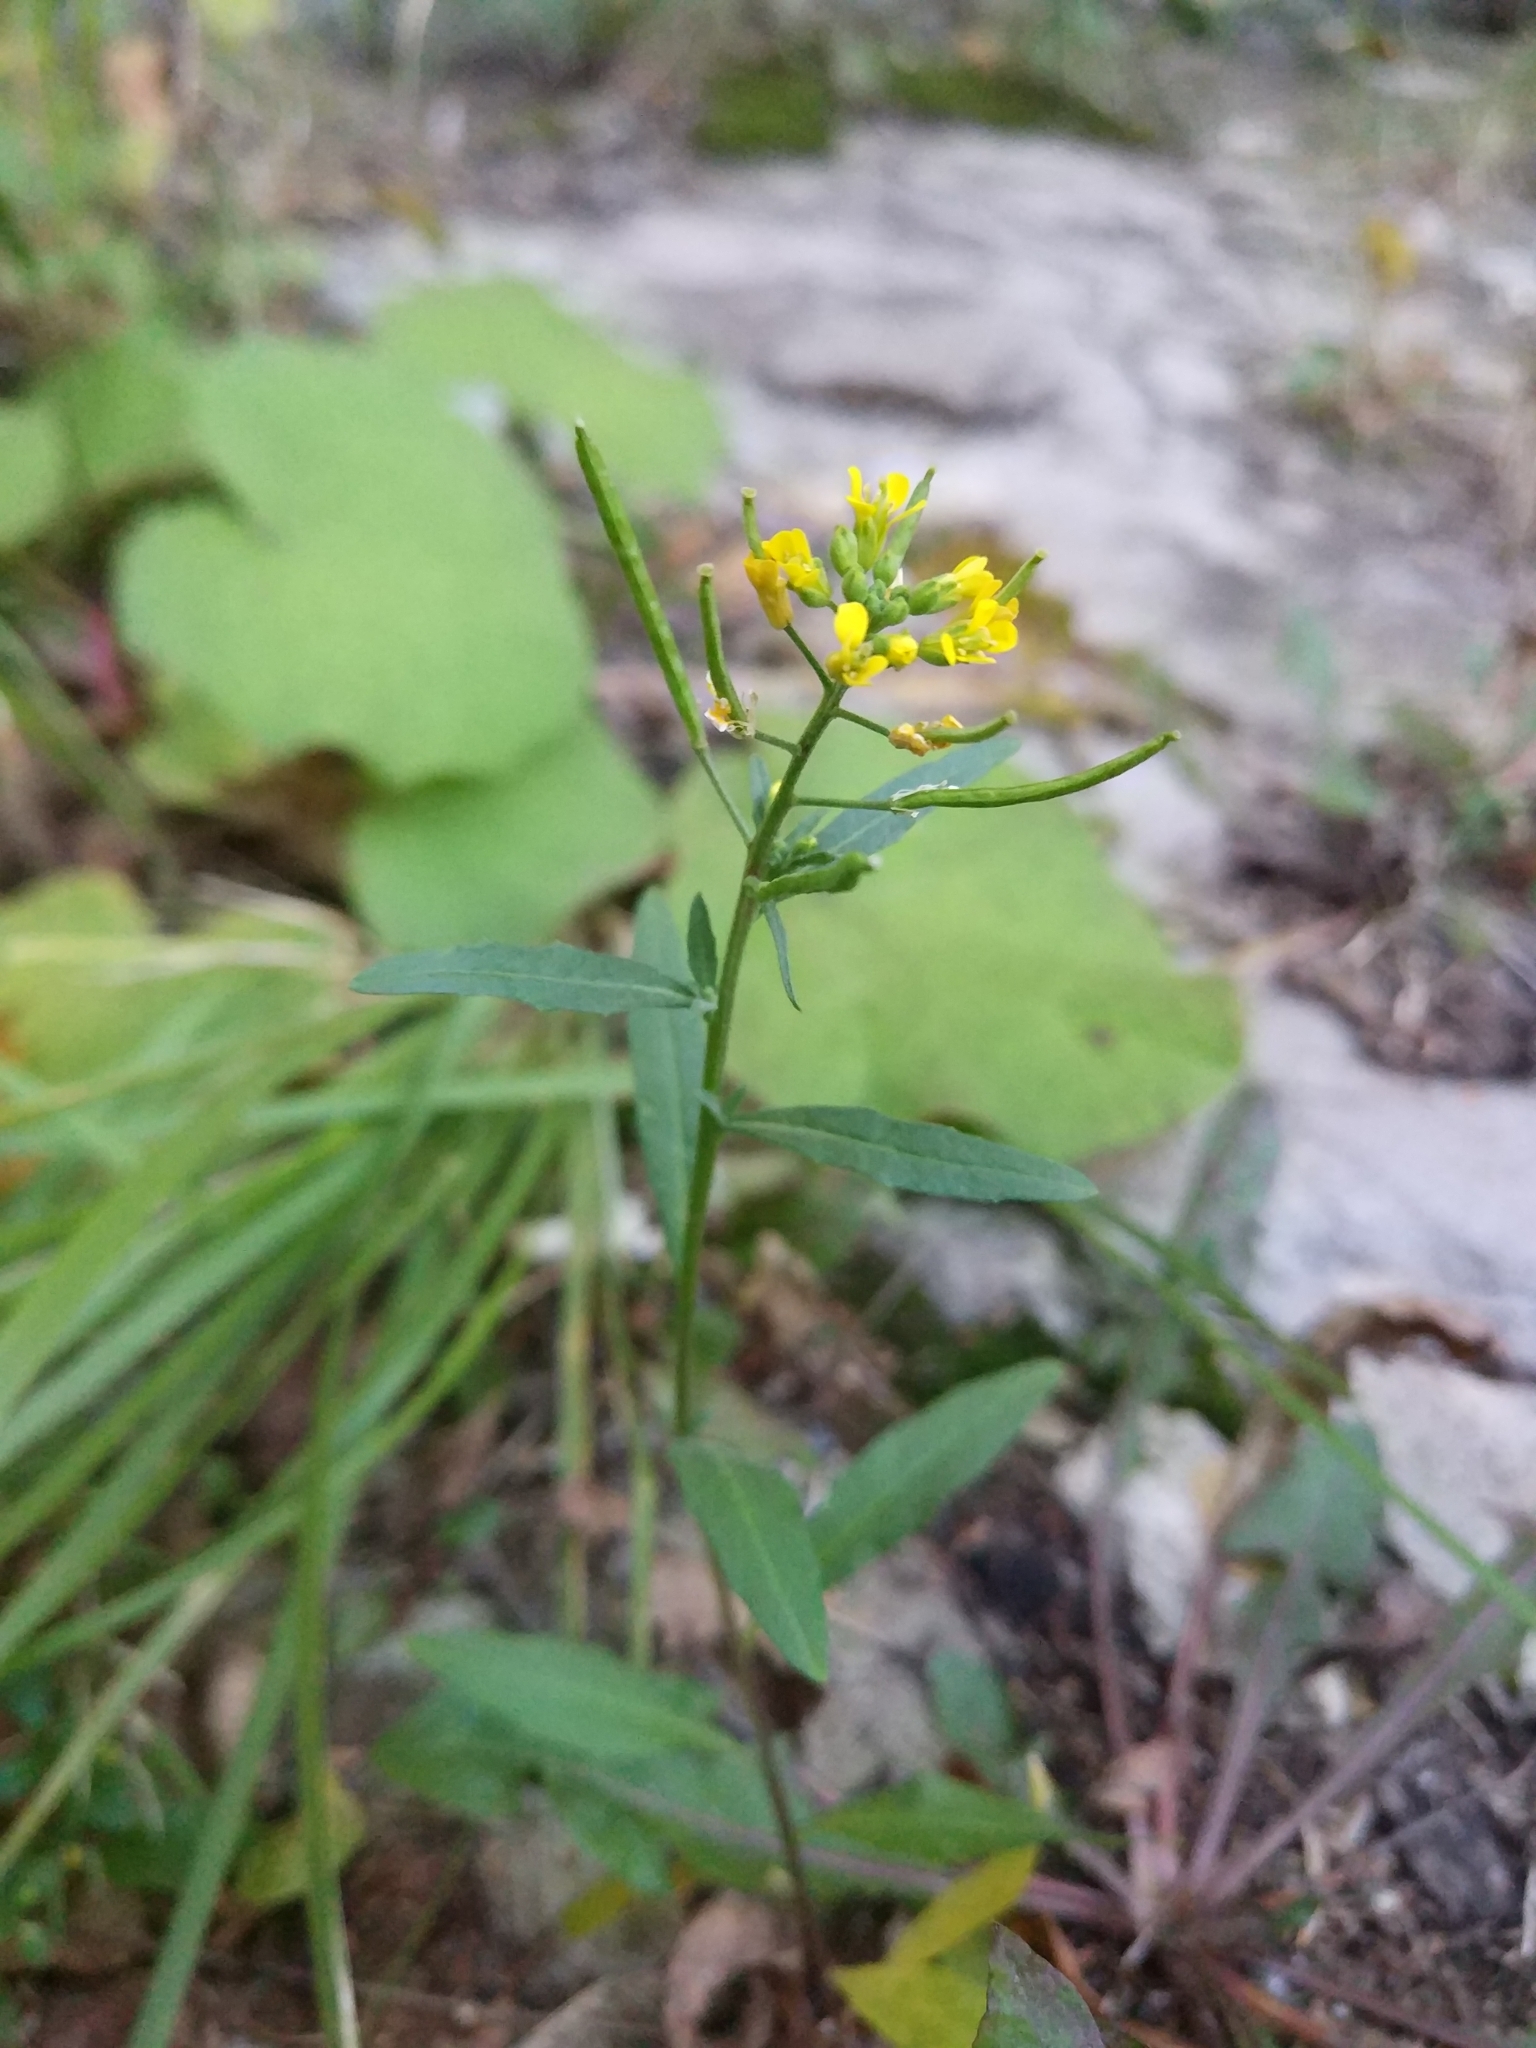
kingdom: Plantae
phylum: Tracheophyta
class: Magnoliopsida
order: Brassicales
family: Brassicaceae
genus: Erysimum
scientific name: Erysimum cheiranthoides
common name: Treacle mustard
